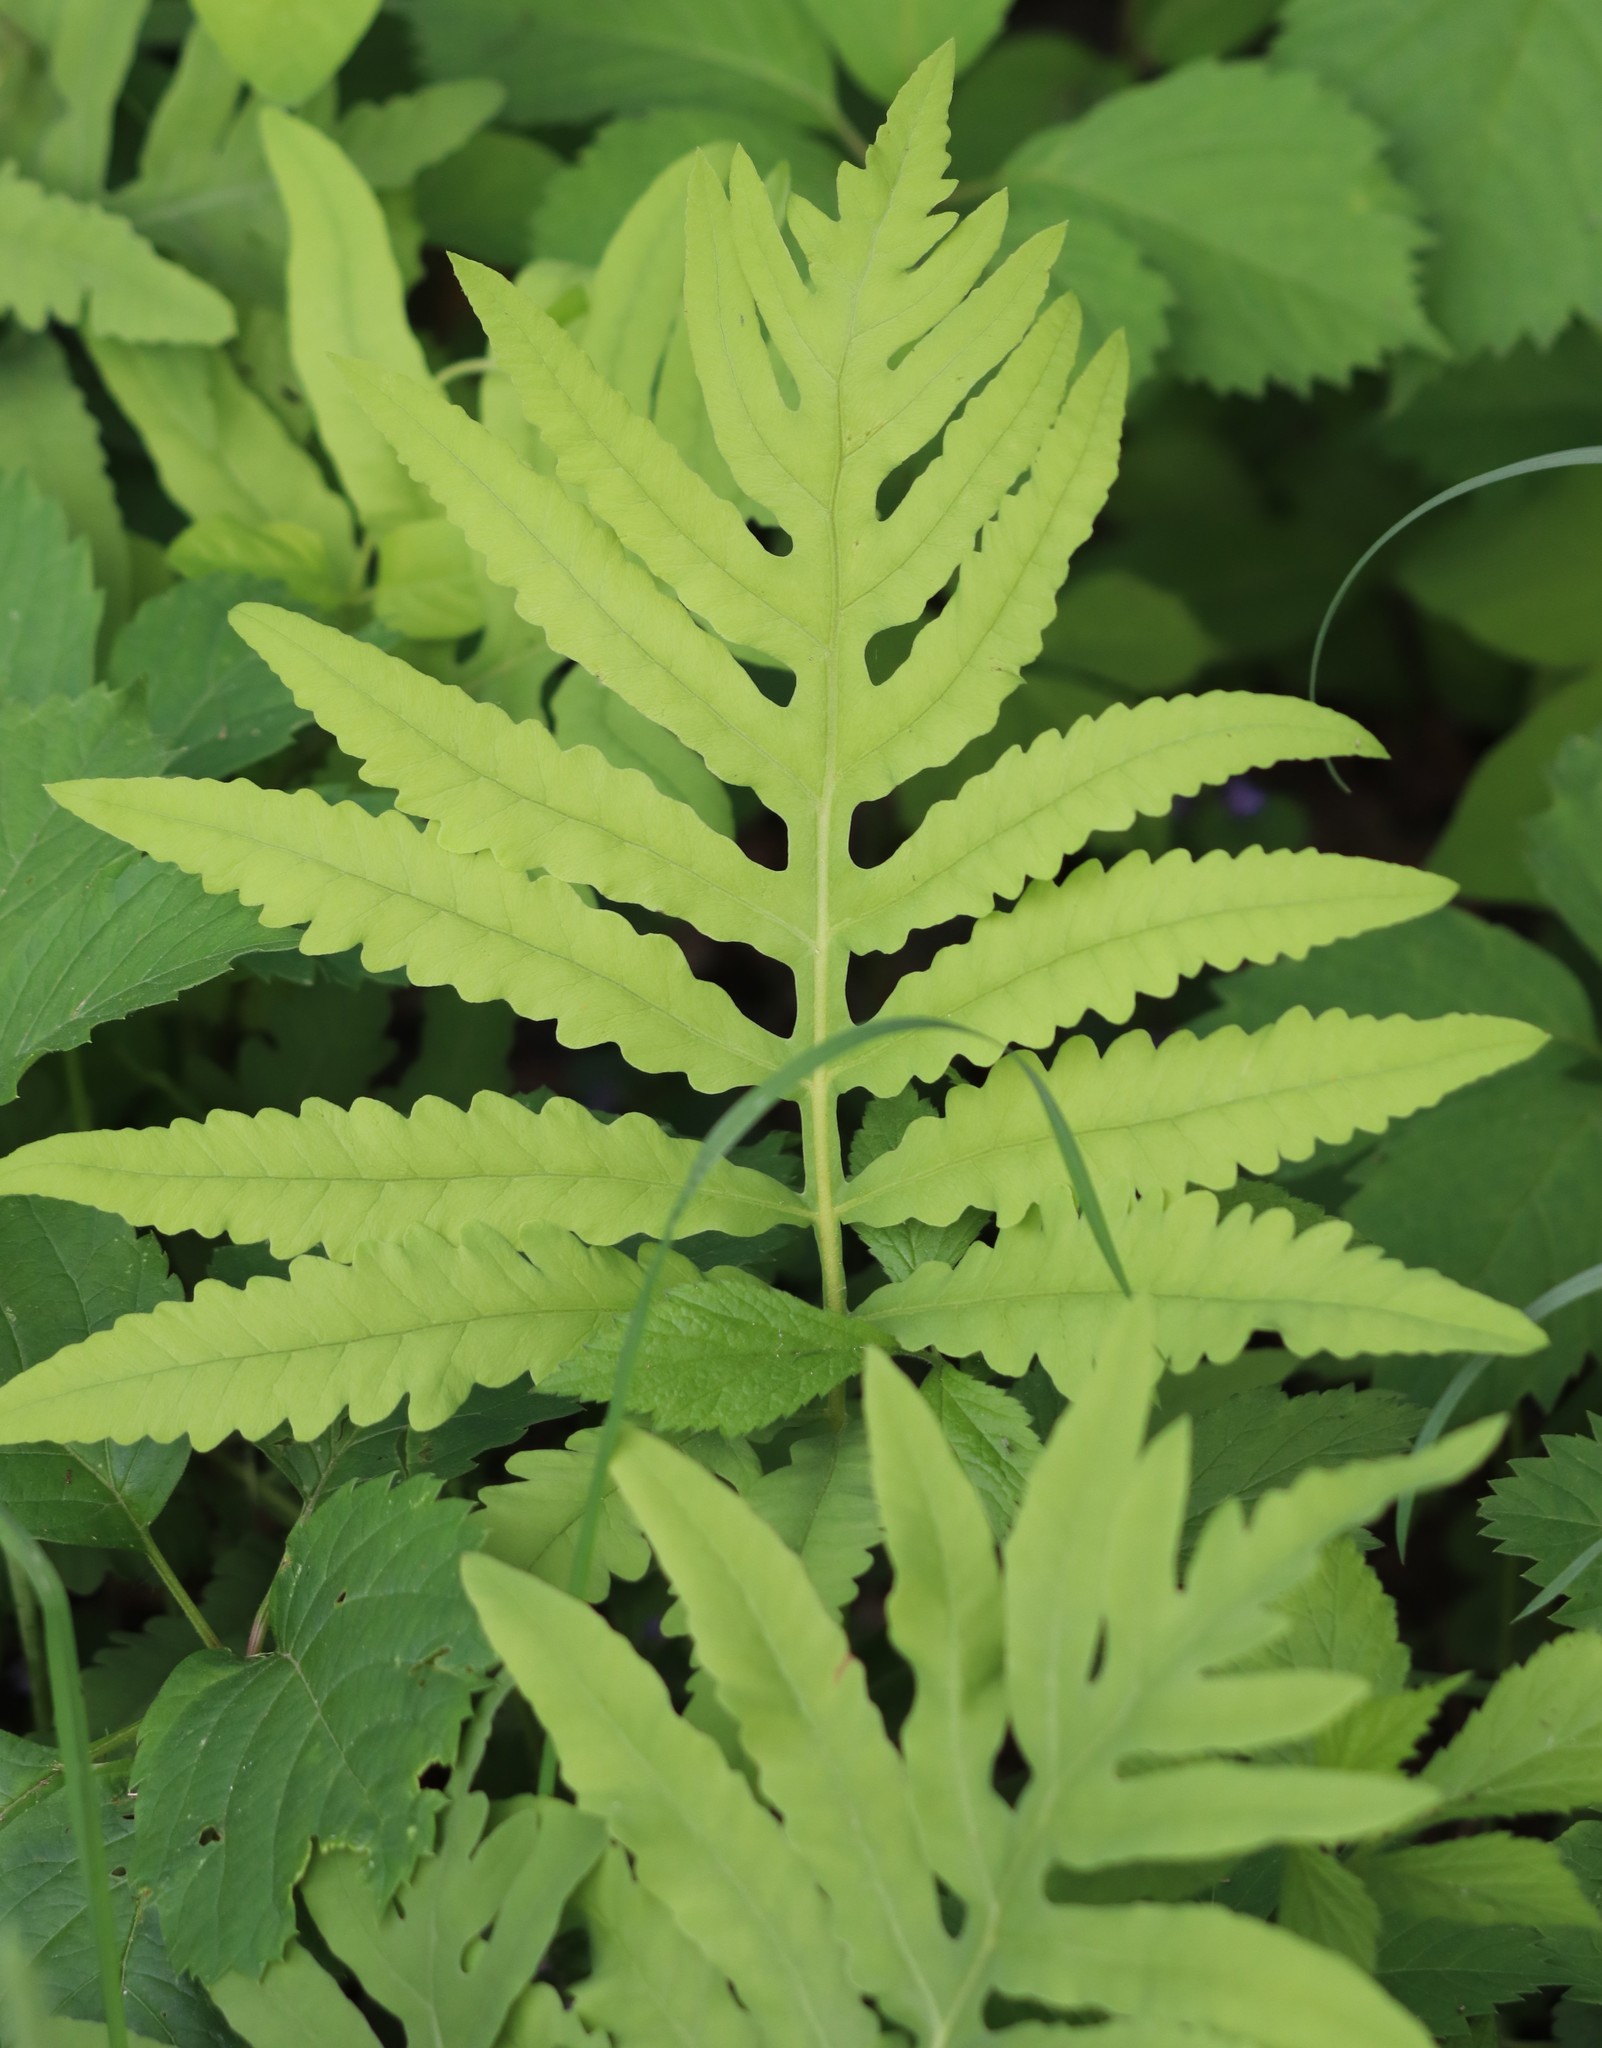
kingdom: Plantae
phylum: Tracheophyta
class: Polypodiopsida
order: Polypodiales
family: Onocleaceae
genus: Onoclea
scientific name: Onoclea sensibilis
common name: Sensitive fern
